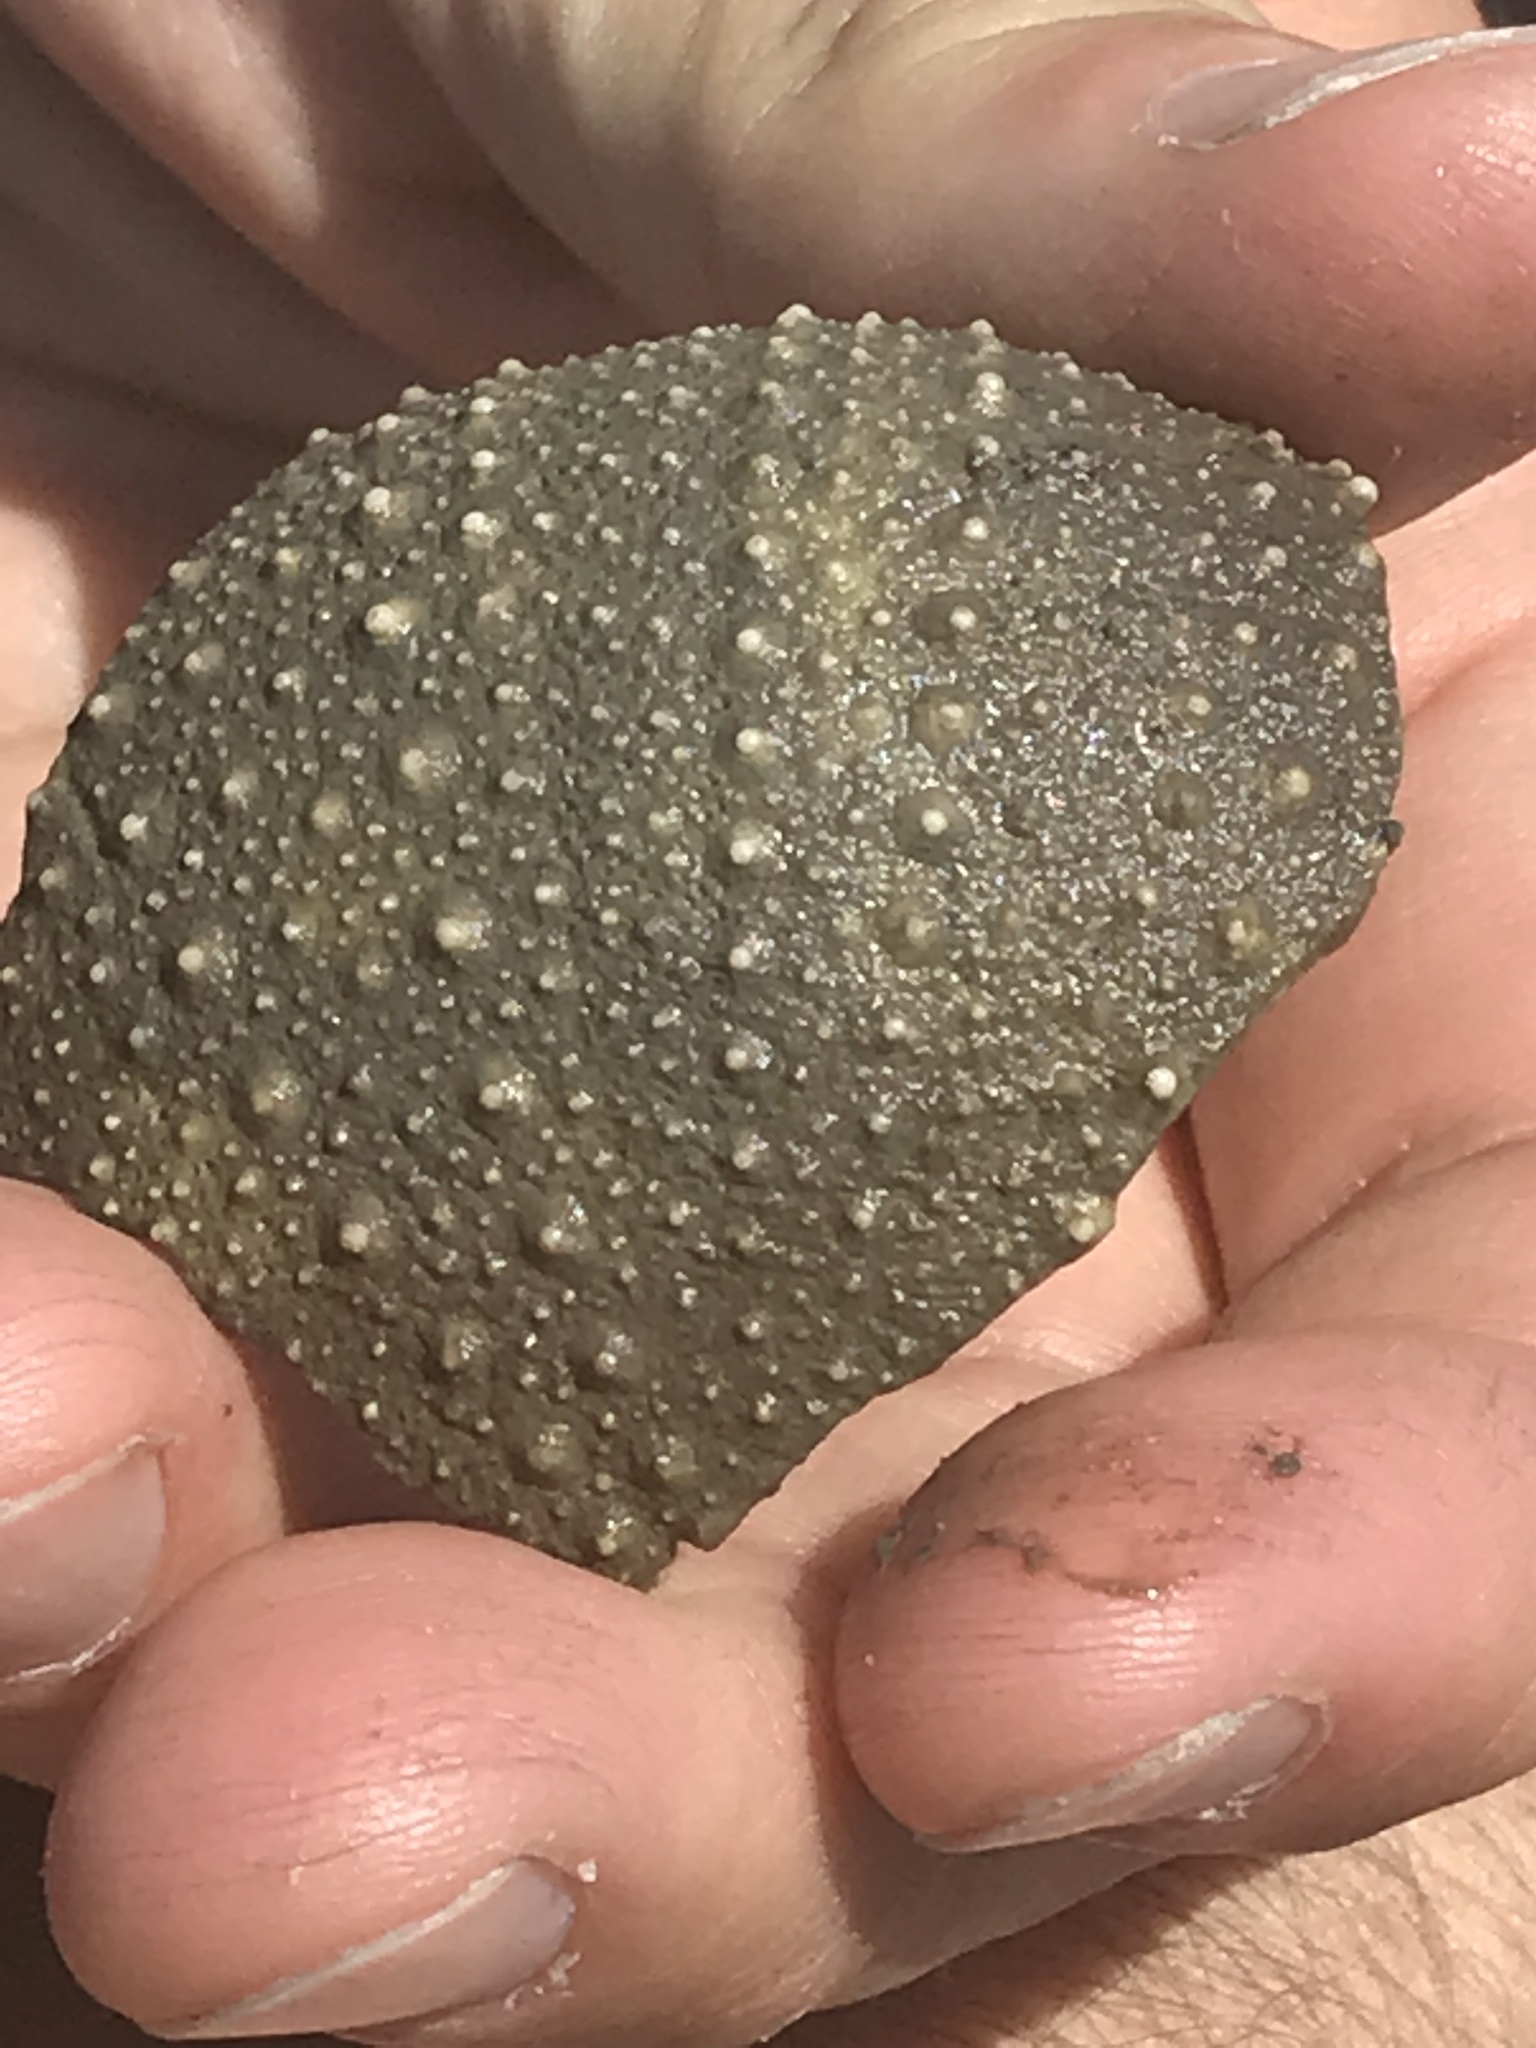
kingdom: Animalia
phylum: Echinodermata
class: Echinoidea
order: Camarodonta
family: Strongylocentrotidae
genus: Strongylocentrotus
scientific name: Strongylocentrotus purpuratus
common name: Purple sea urchin
